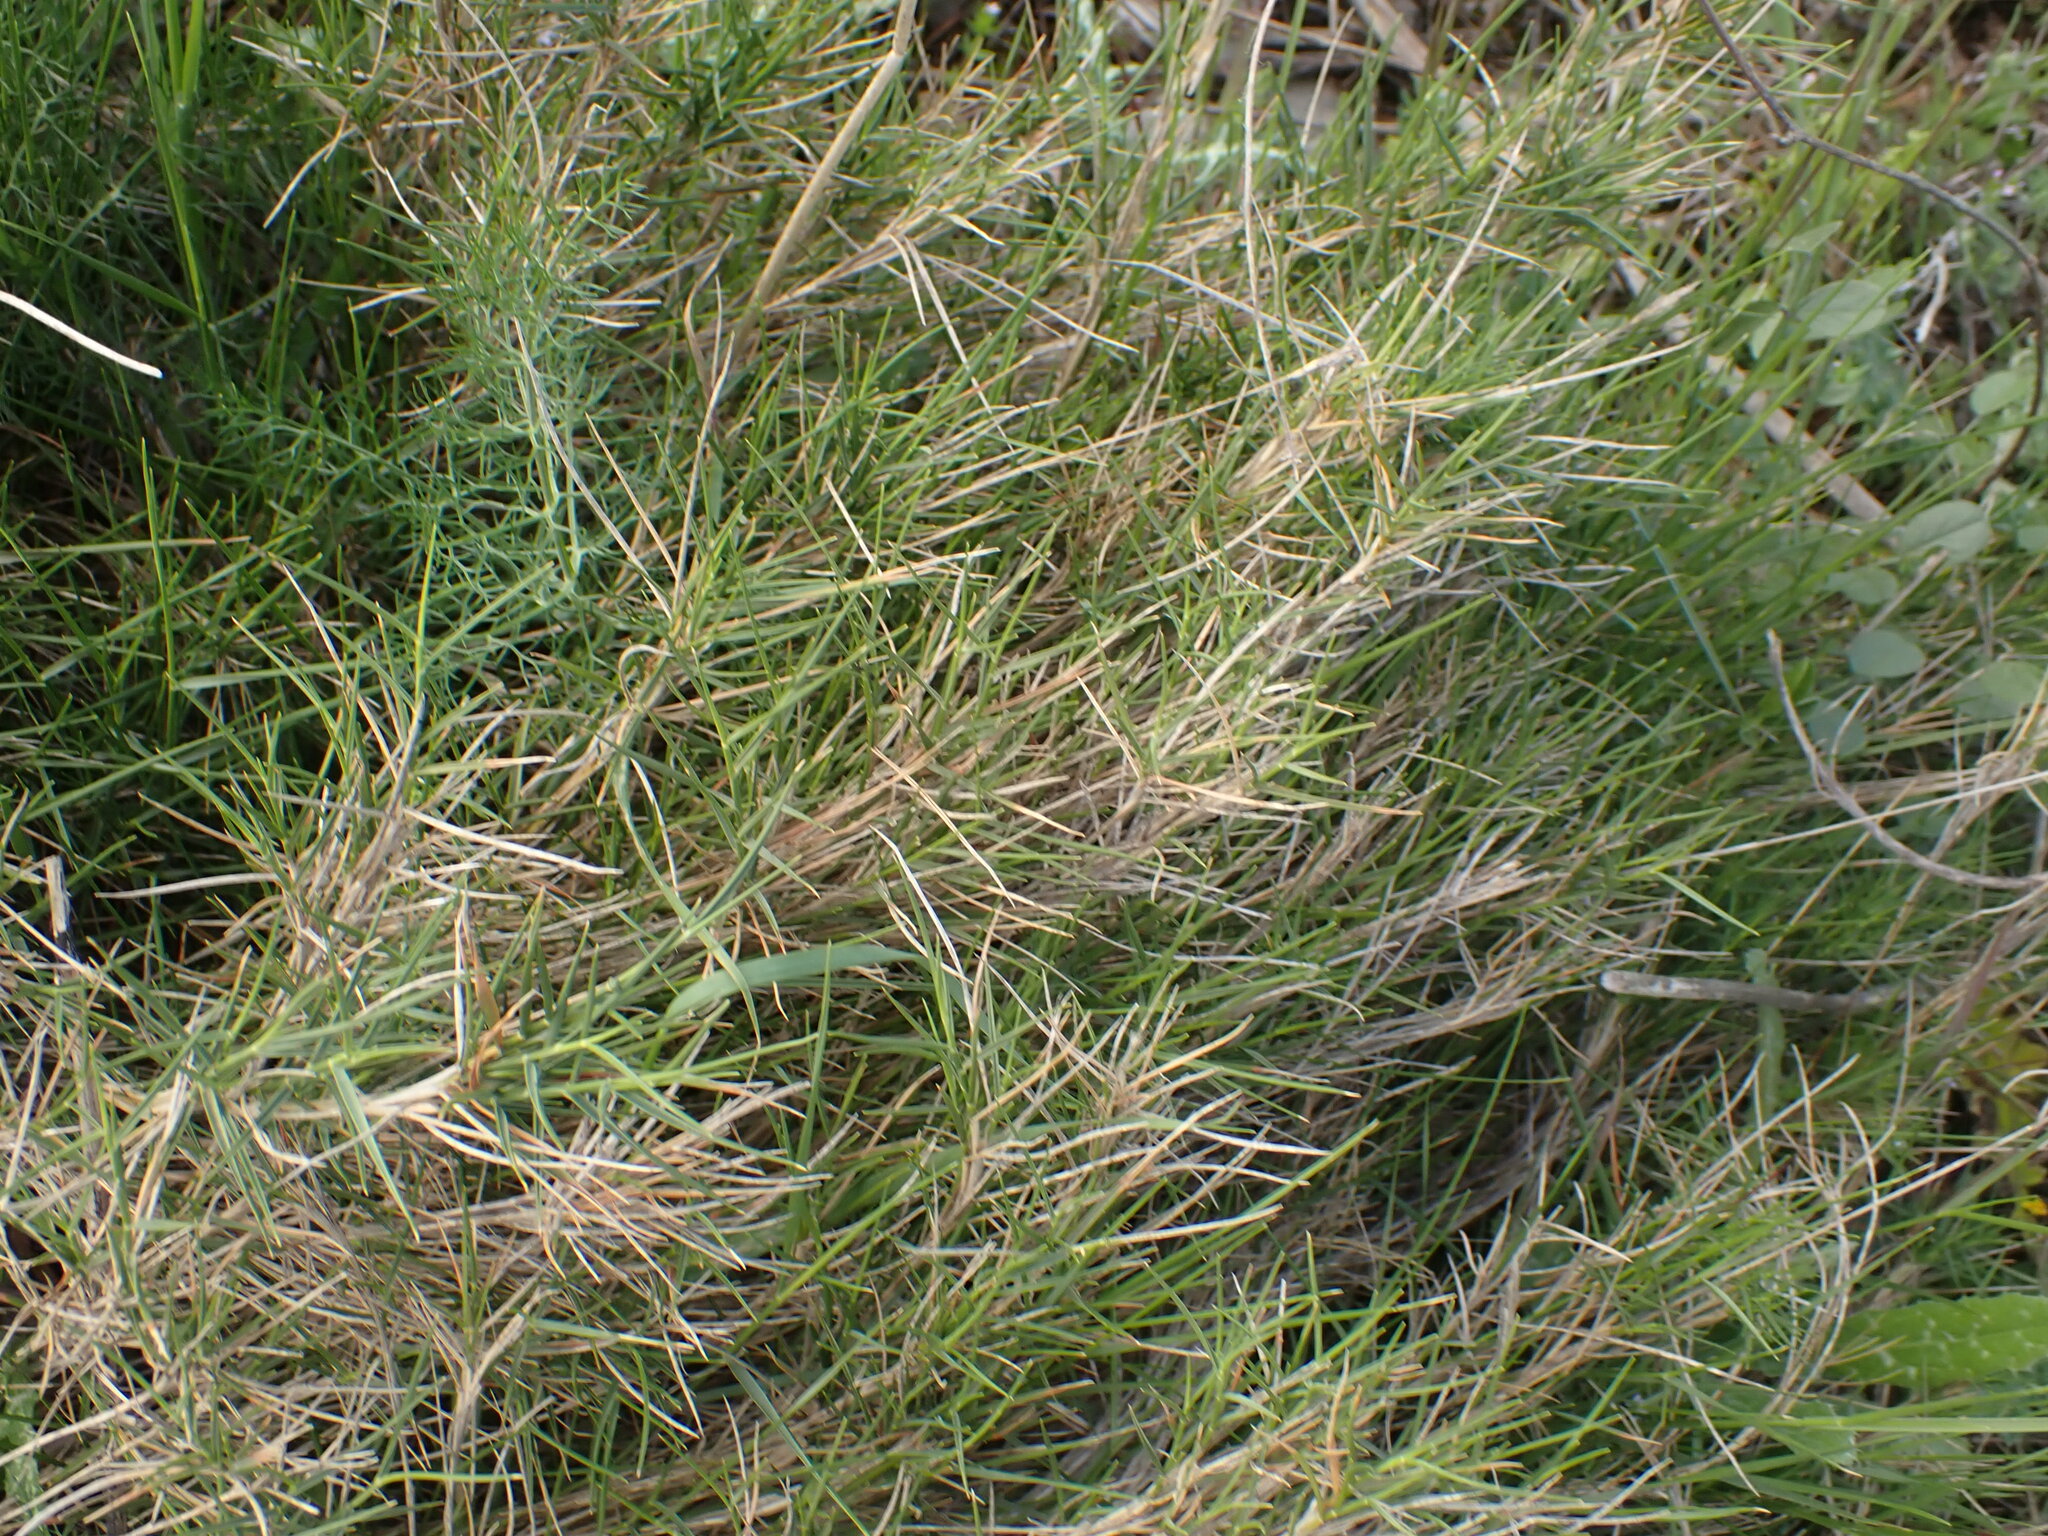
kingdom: Plantae
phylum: Tracheophyta
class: Liliopsida
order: Poales
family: Poaceae
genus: Brachypodium
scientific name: Brachypodium retusum
